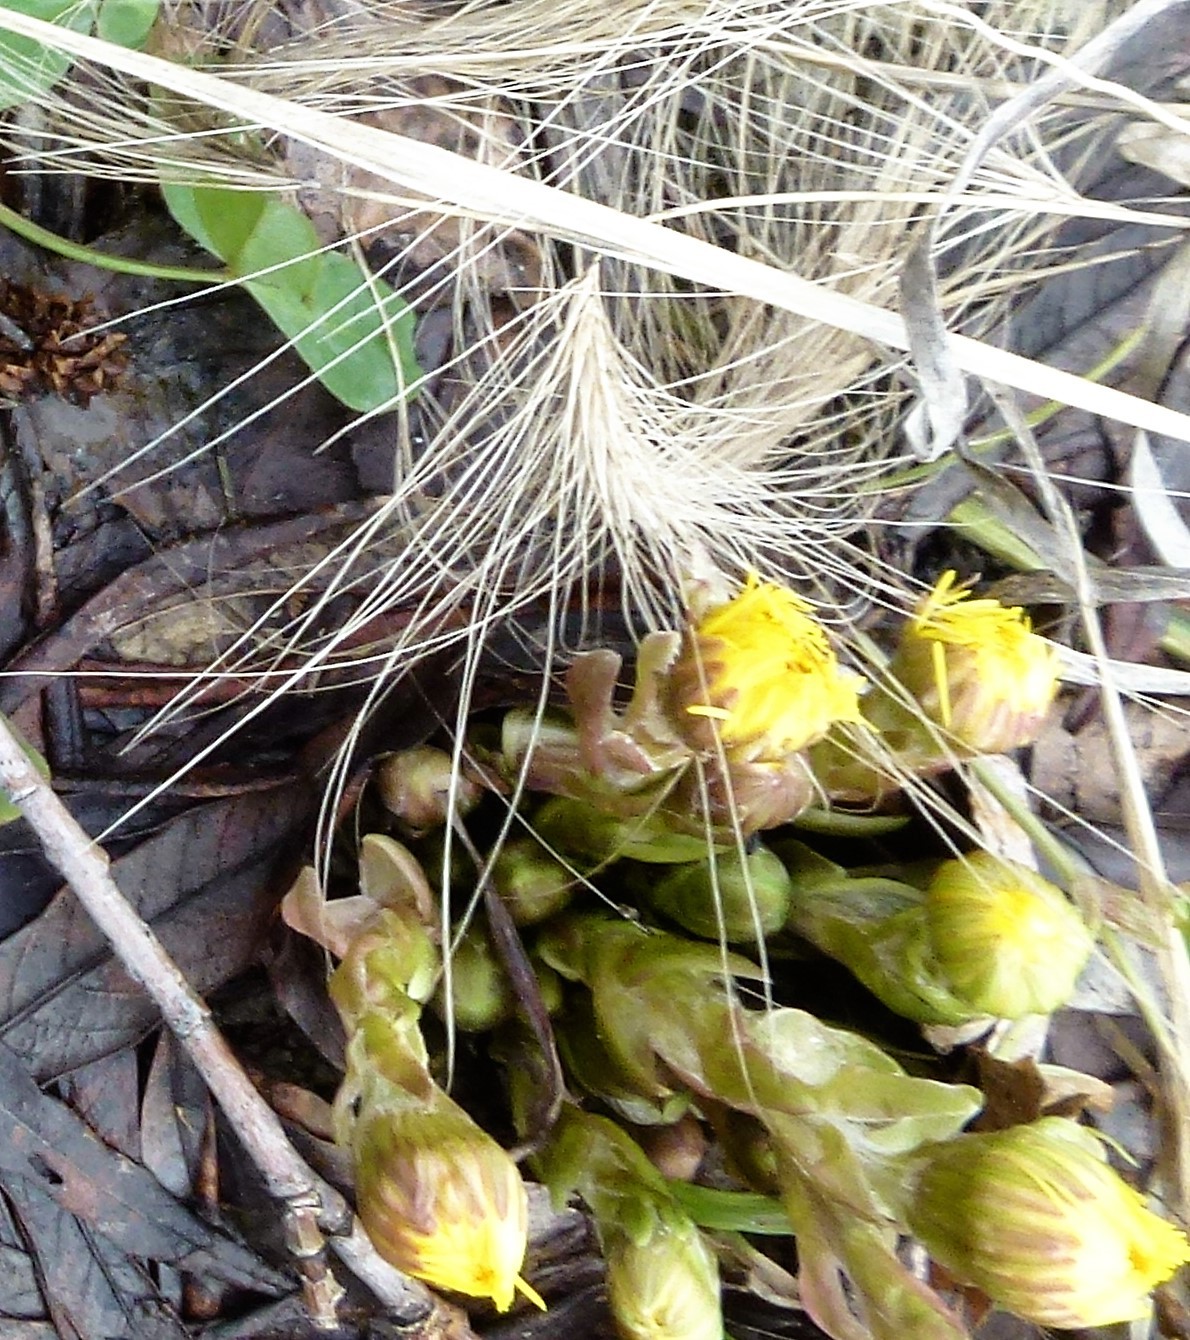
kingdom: Plantae
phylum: Tracheophyta
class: Magnoliopsida
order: Asterales
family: Asteraceae
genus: Tussilago
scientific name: Tussilago farfara
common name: Coltsfoot
